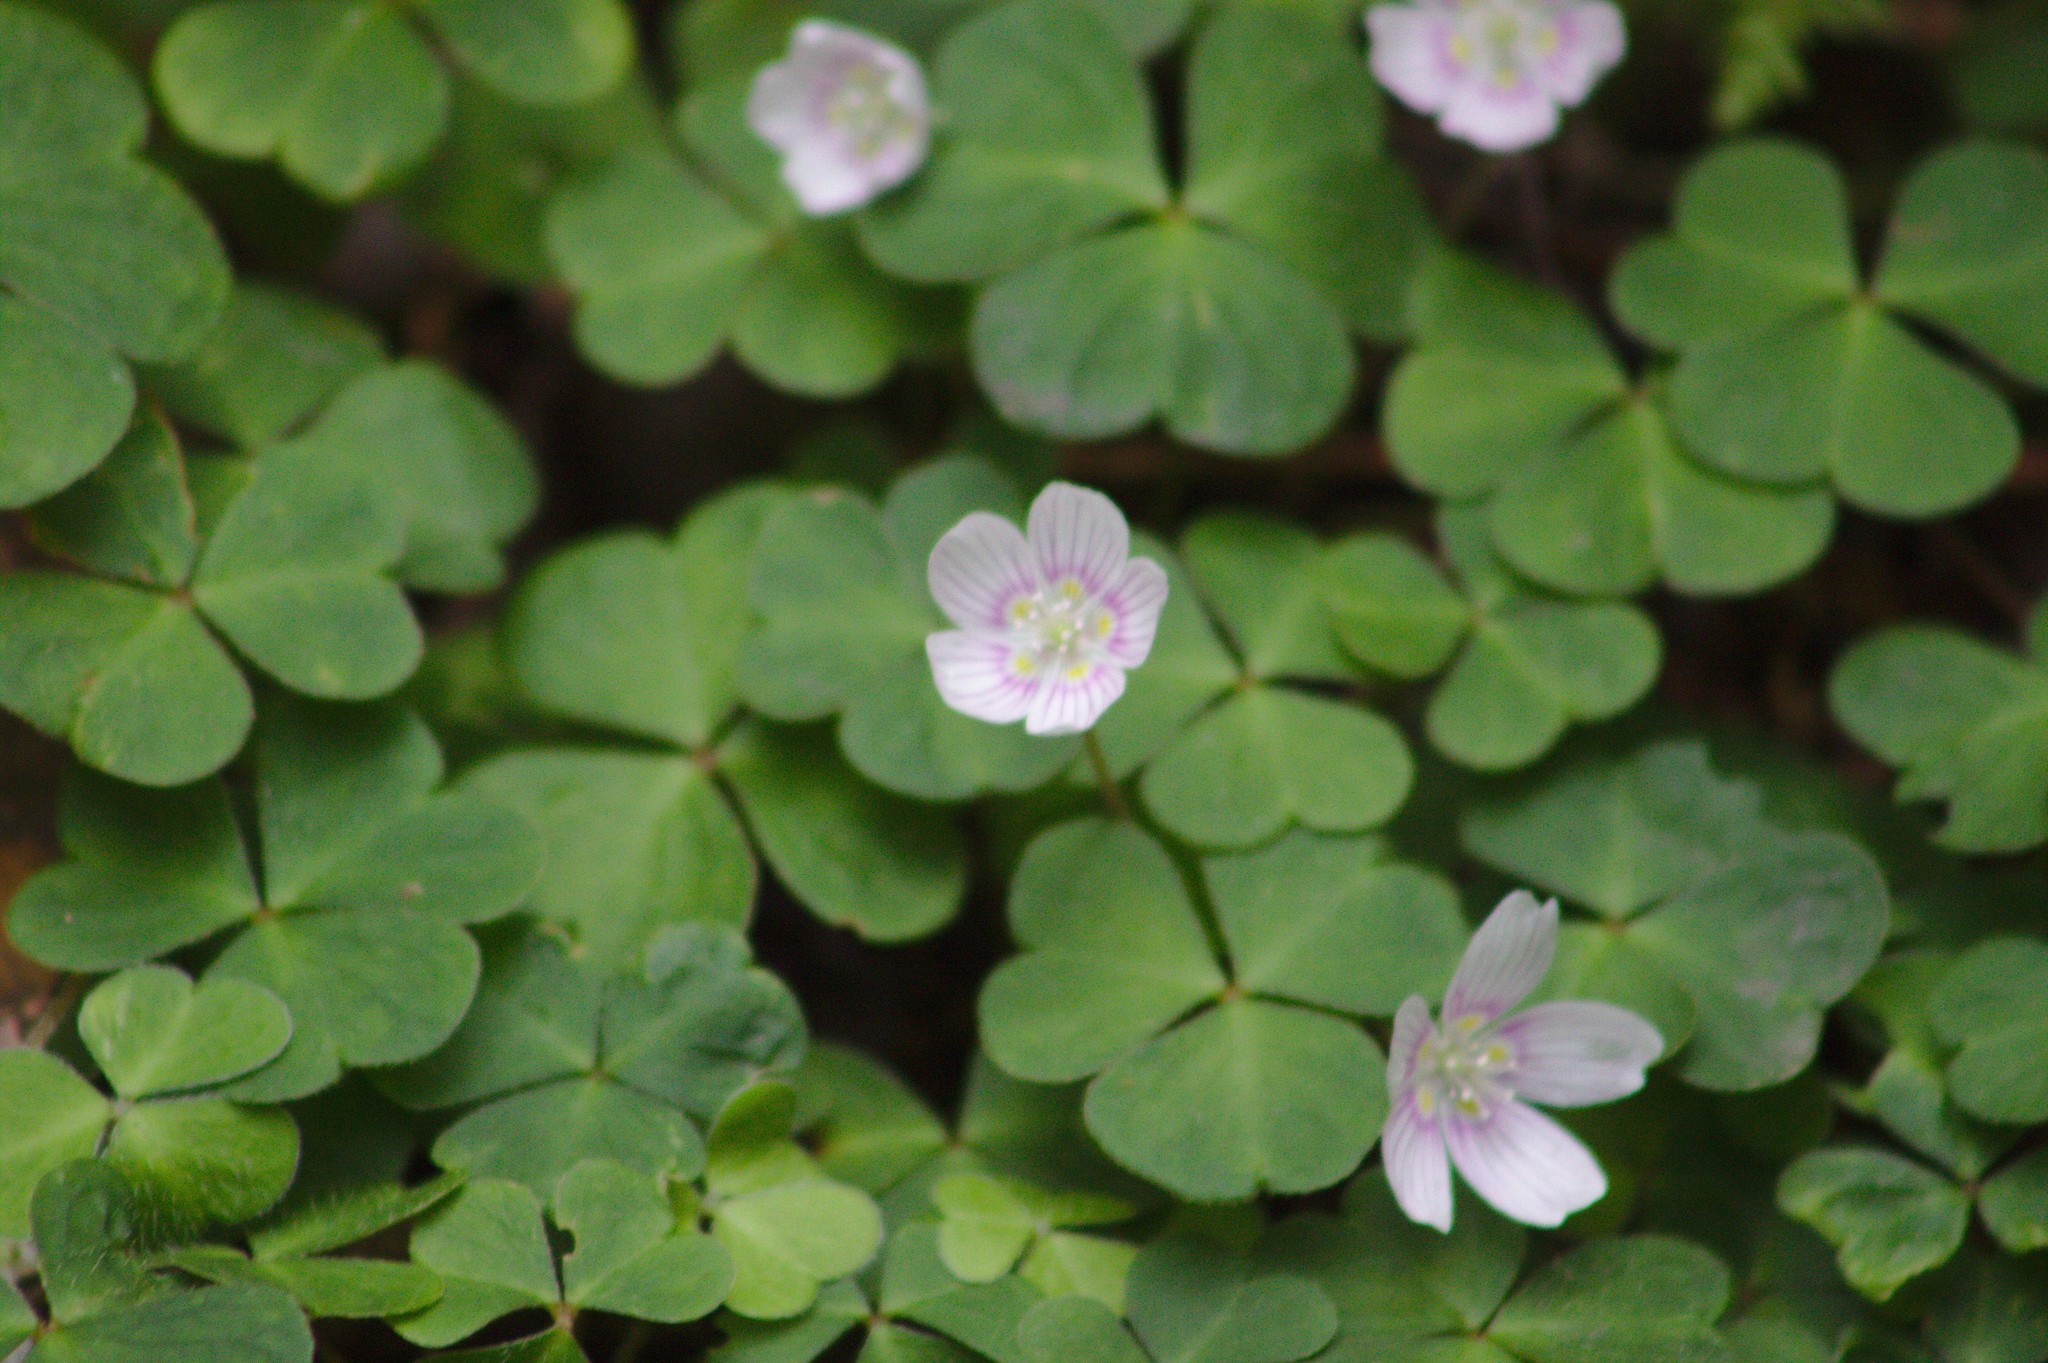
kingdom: Plantae
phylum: Tracheophyta
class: Magnoliopsida
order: Oxalidales
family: Oxalidaceae
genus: Oxalis
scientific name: Oxalis montana
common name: American wood-sorrel
